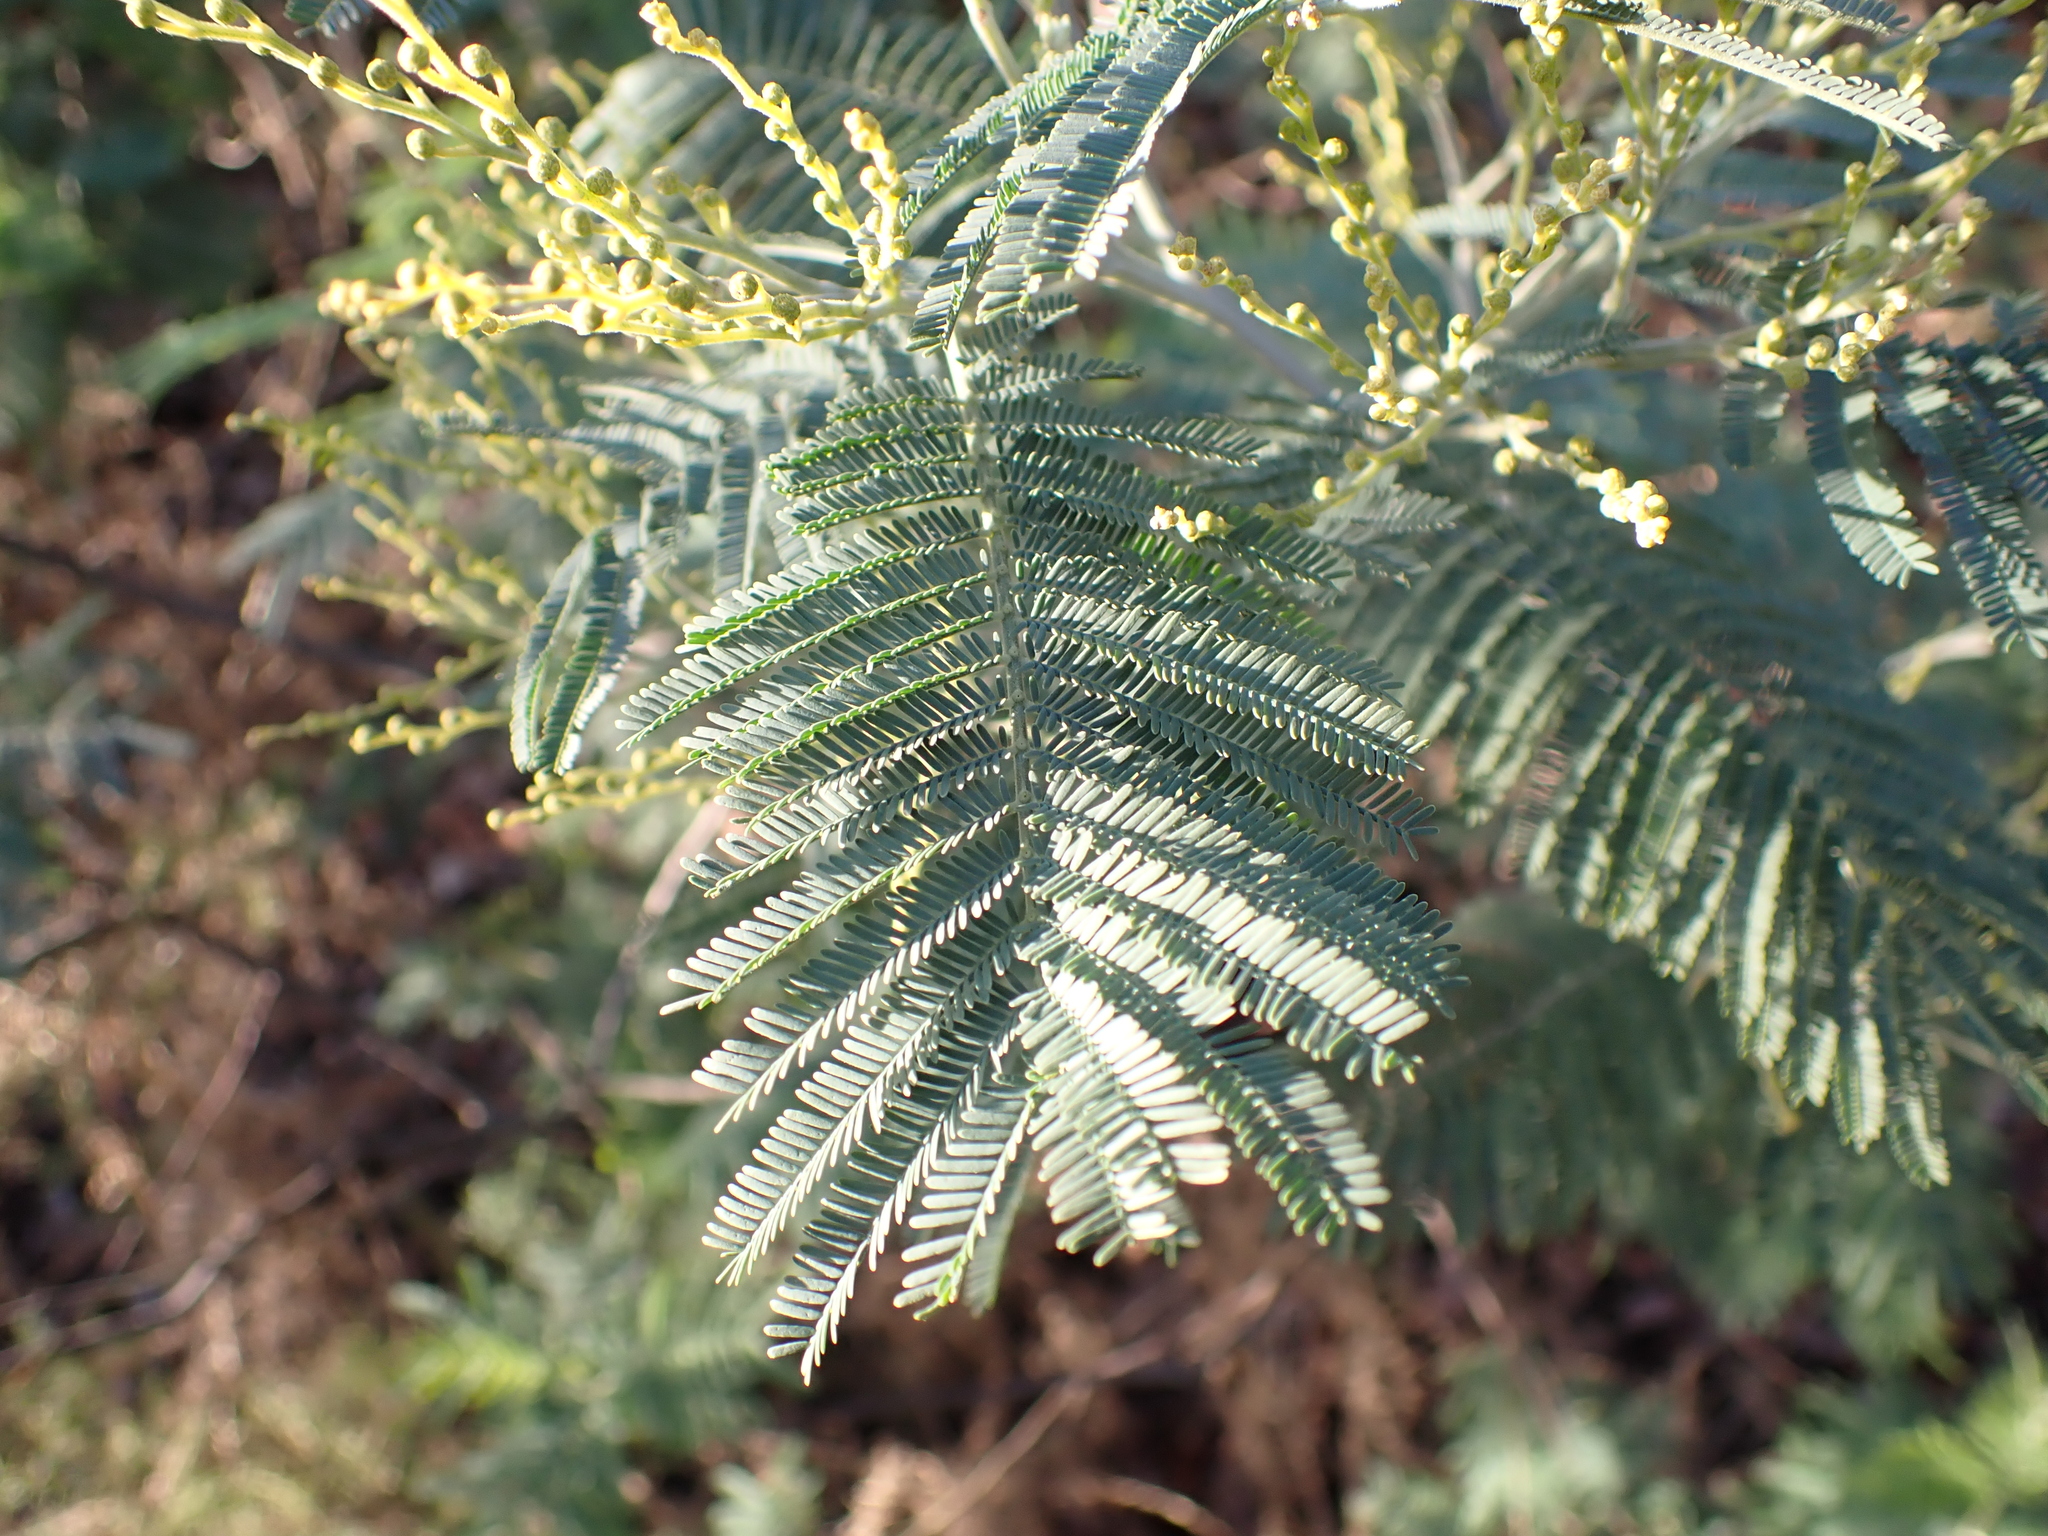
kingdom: Plantae
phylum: Tracheophyta
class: Magnoliopsida
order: Fabales
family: Fabaceae
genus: Acacia
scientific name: Acacia dealbata
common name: Silver wattle
